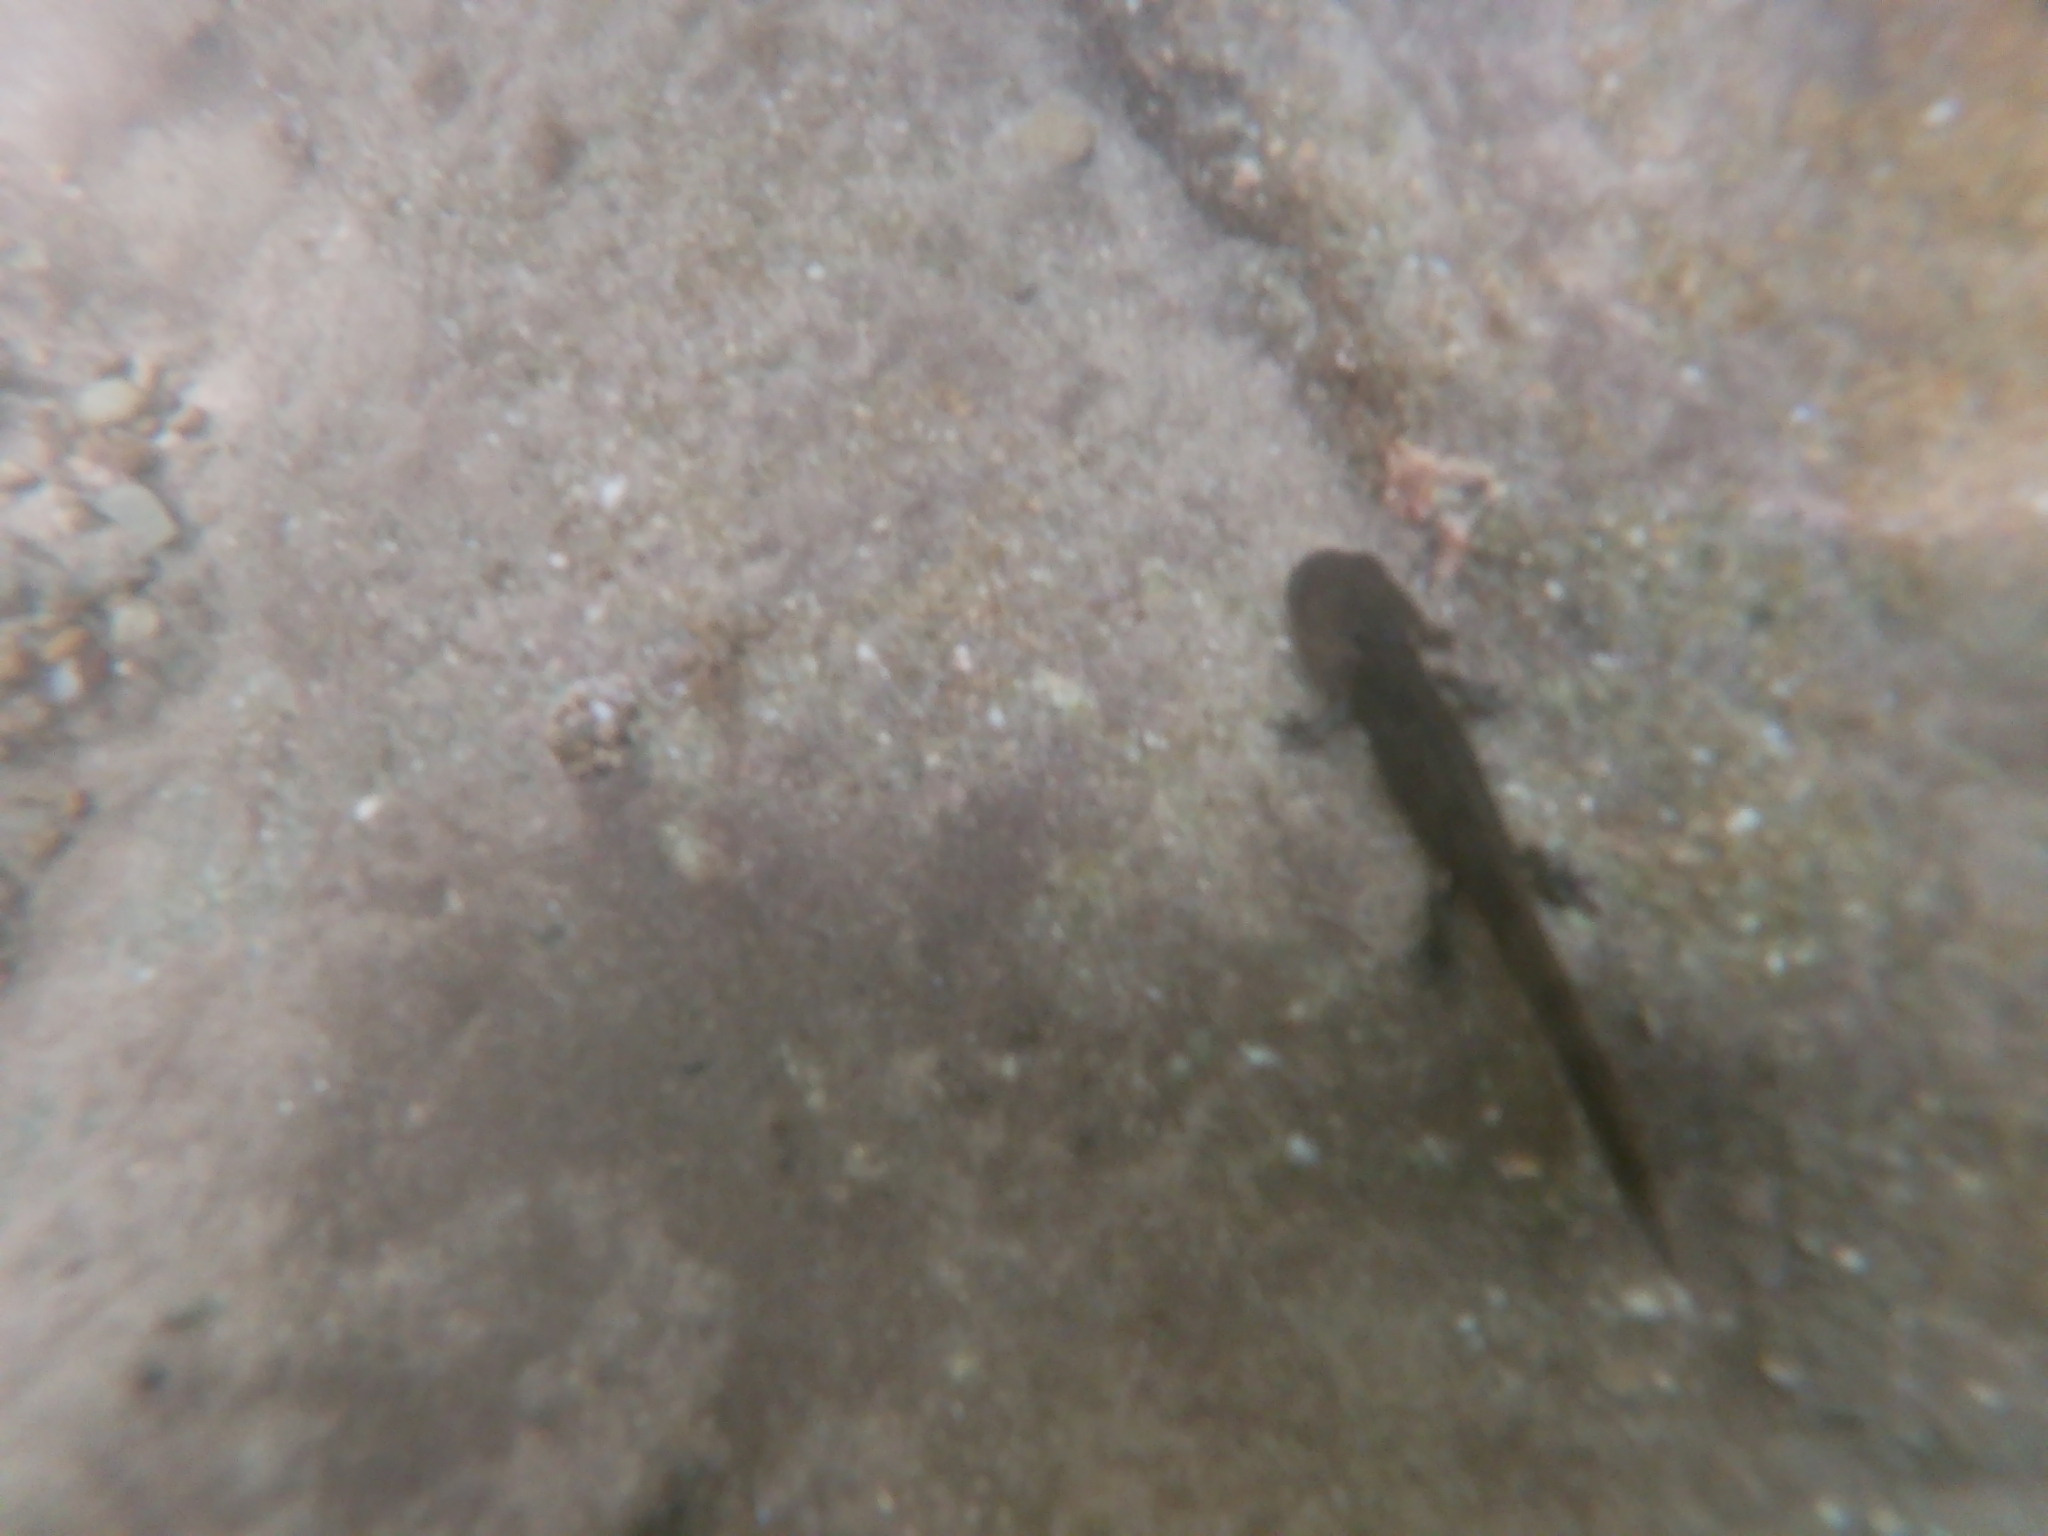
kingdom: Animalia
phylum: Chordata
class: Amphibia
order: Caudata
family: Salamandridae
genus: Salamandra
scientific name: Salamandra salamandra
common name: Fire salamander
